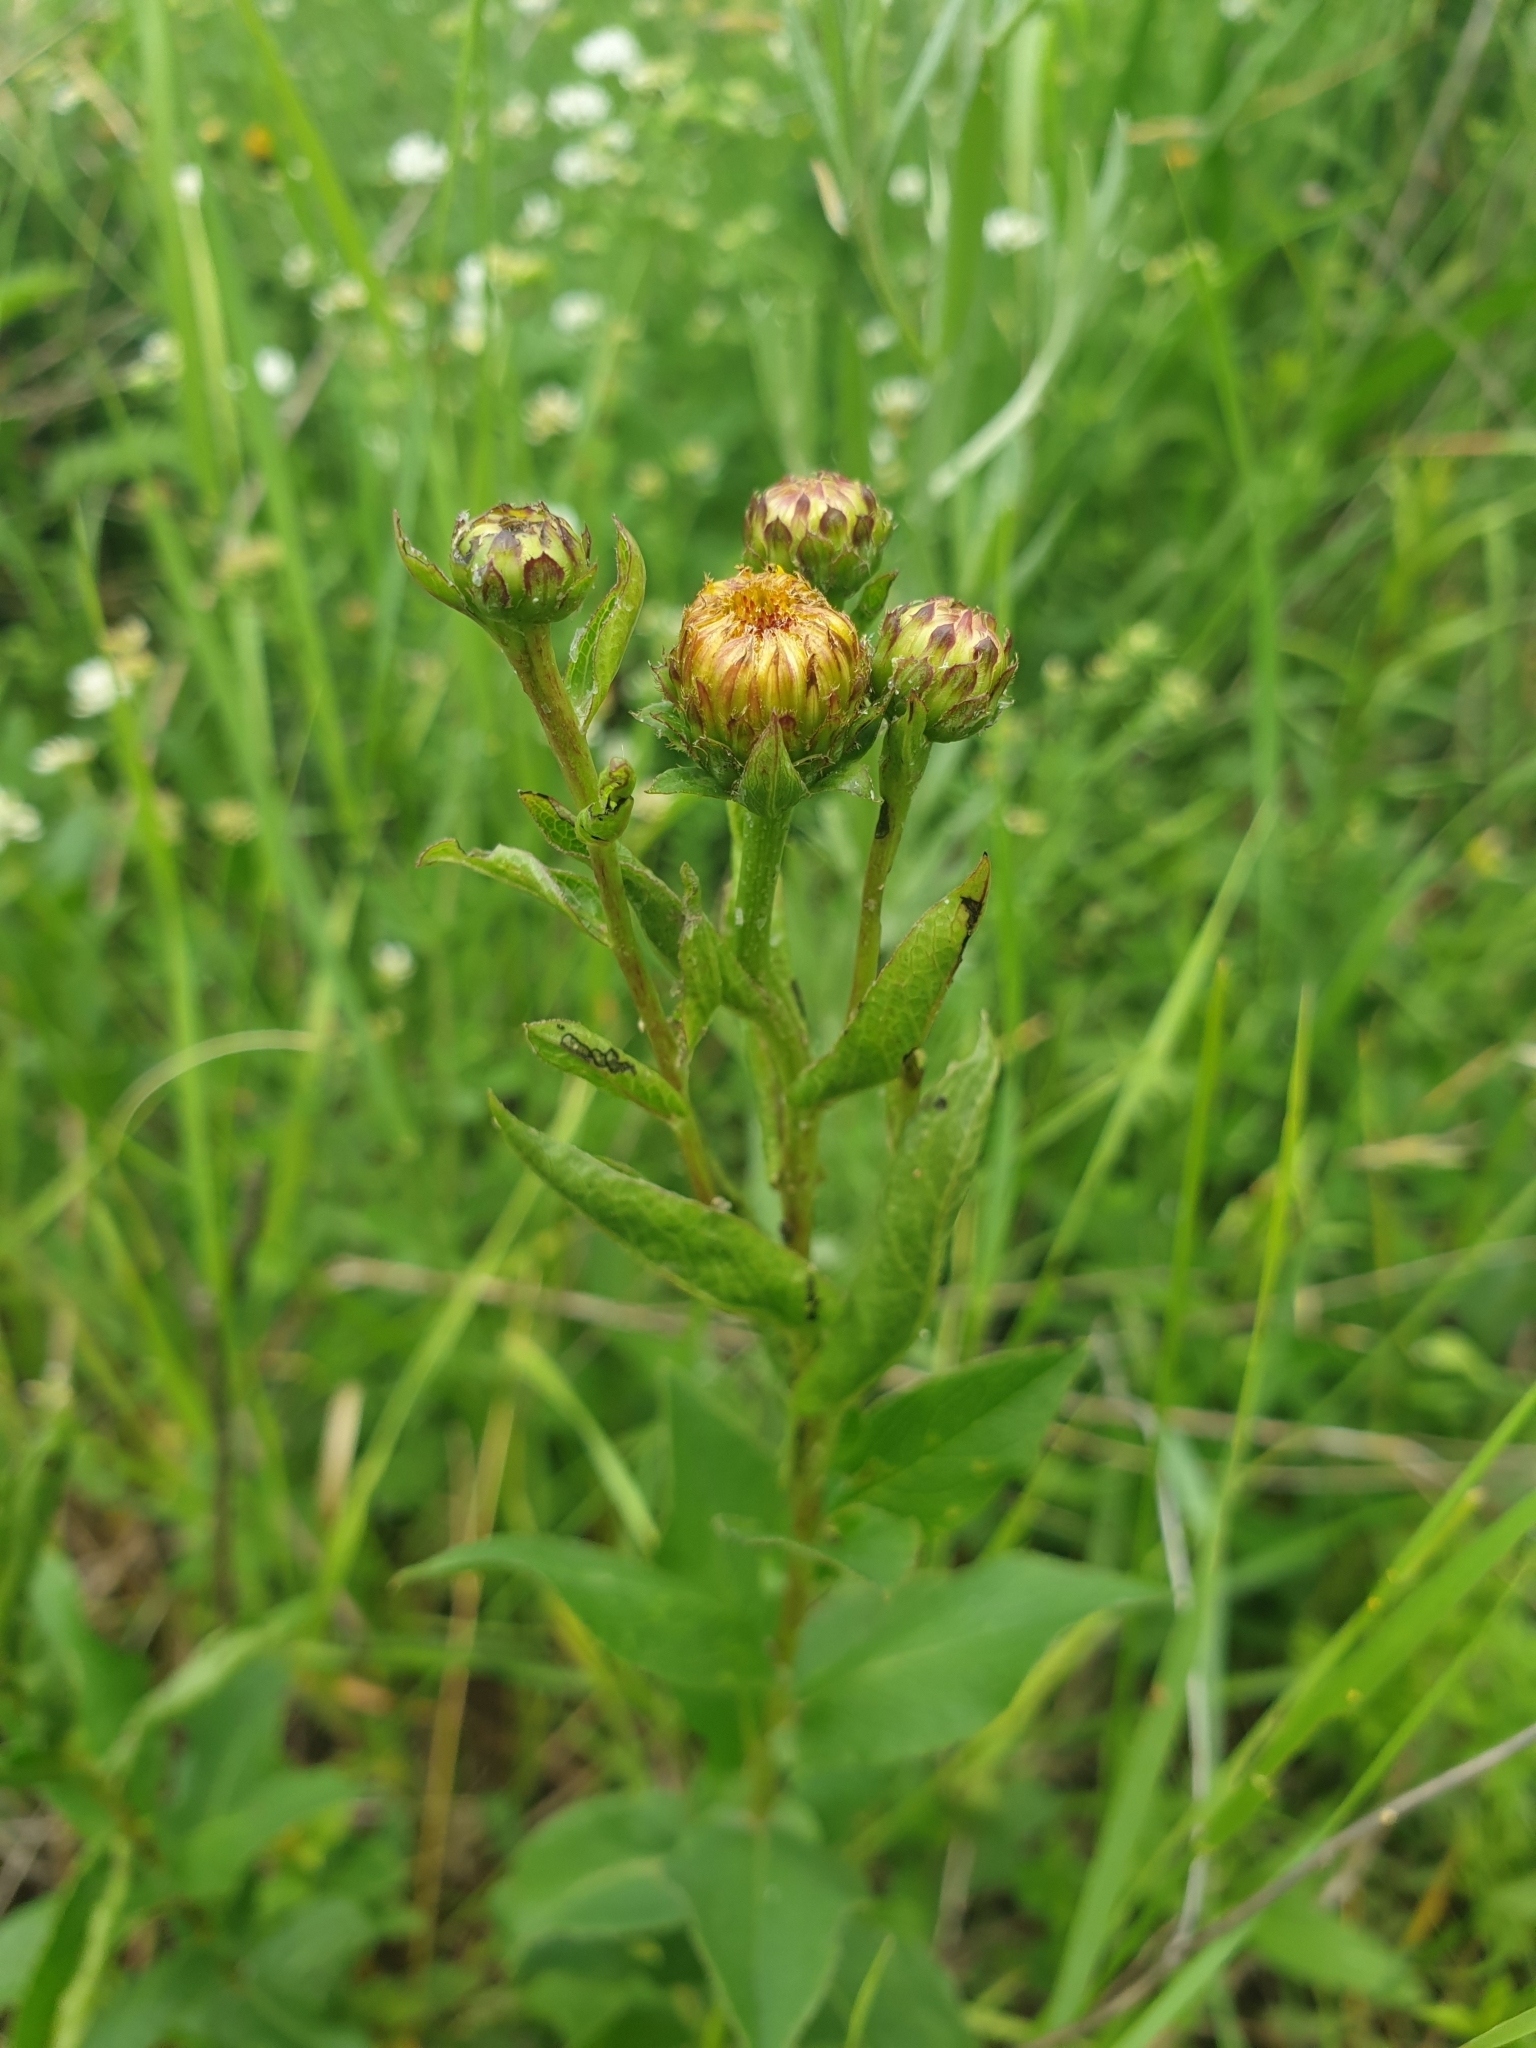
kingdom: Plantae
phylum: Tracheophyta
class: Magnoliopsida
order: Asterales
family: Asteraceae
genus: Pentanema
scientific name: Pentanema asperum
